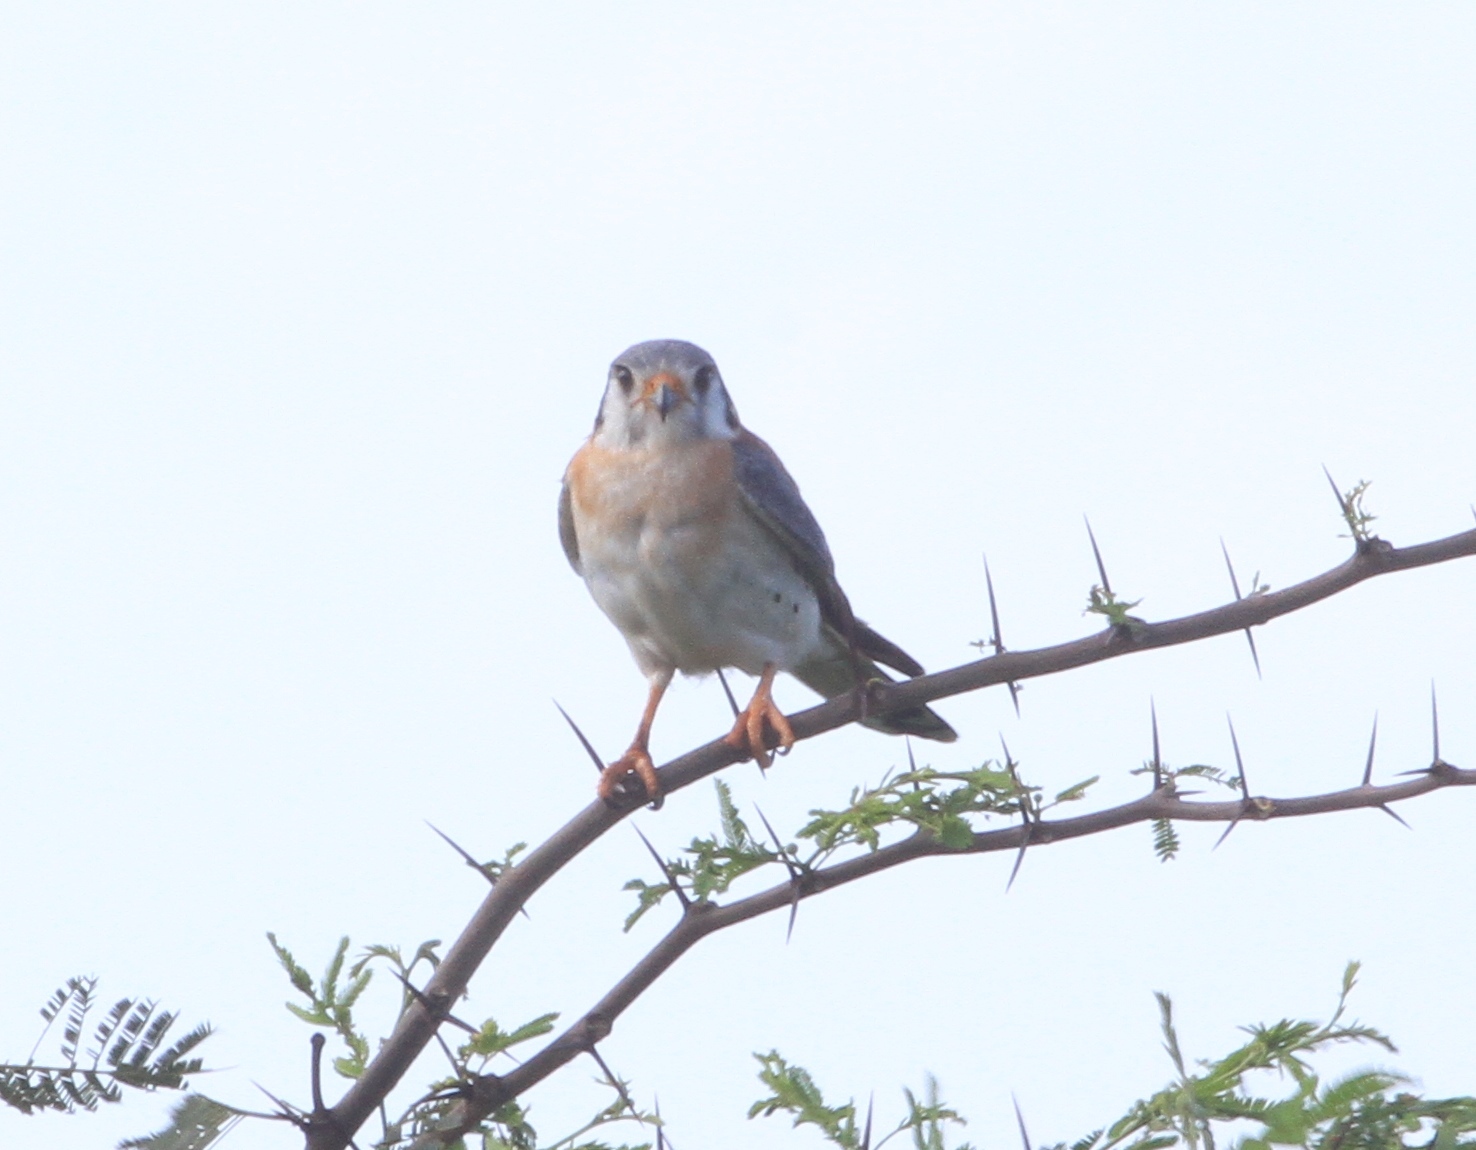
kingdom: Animalia
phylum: Chordata
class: Aves
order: Falconiformes
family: Falconidae
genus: Falco
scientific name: Falco sparverius
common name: American kestrel
